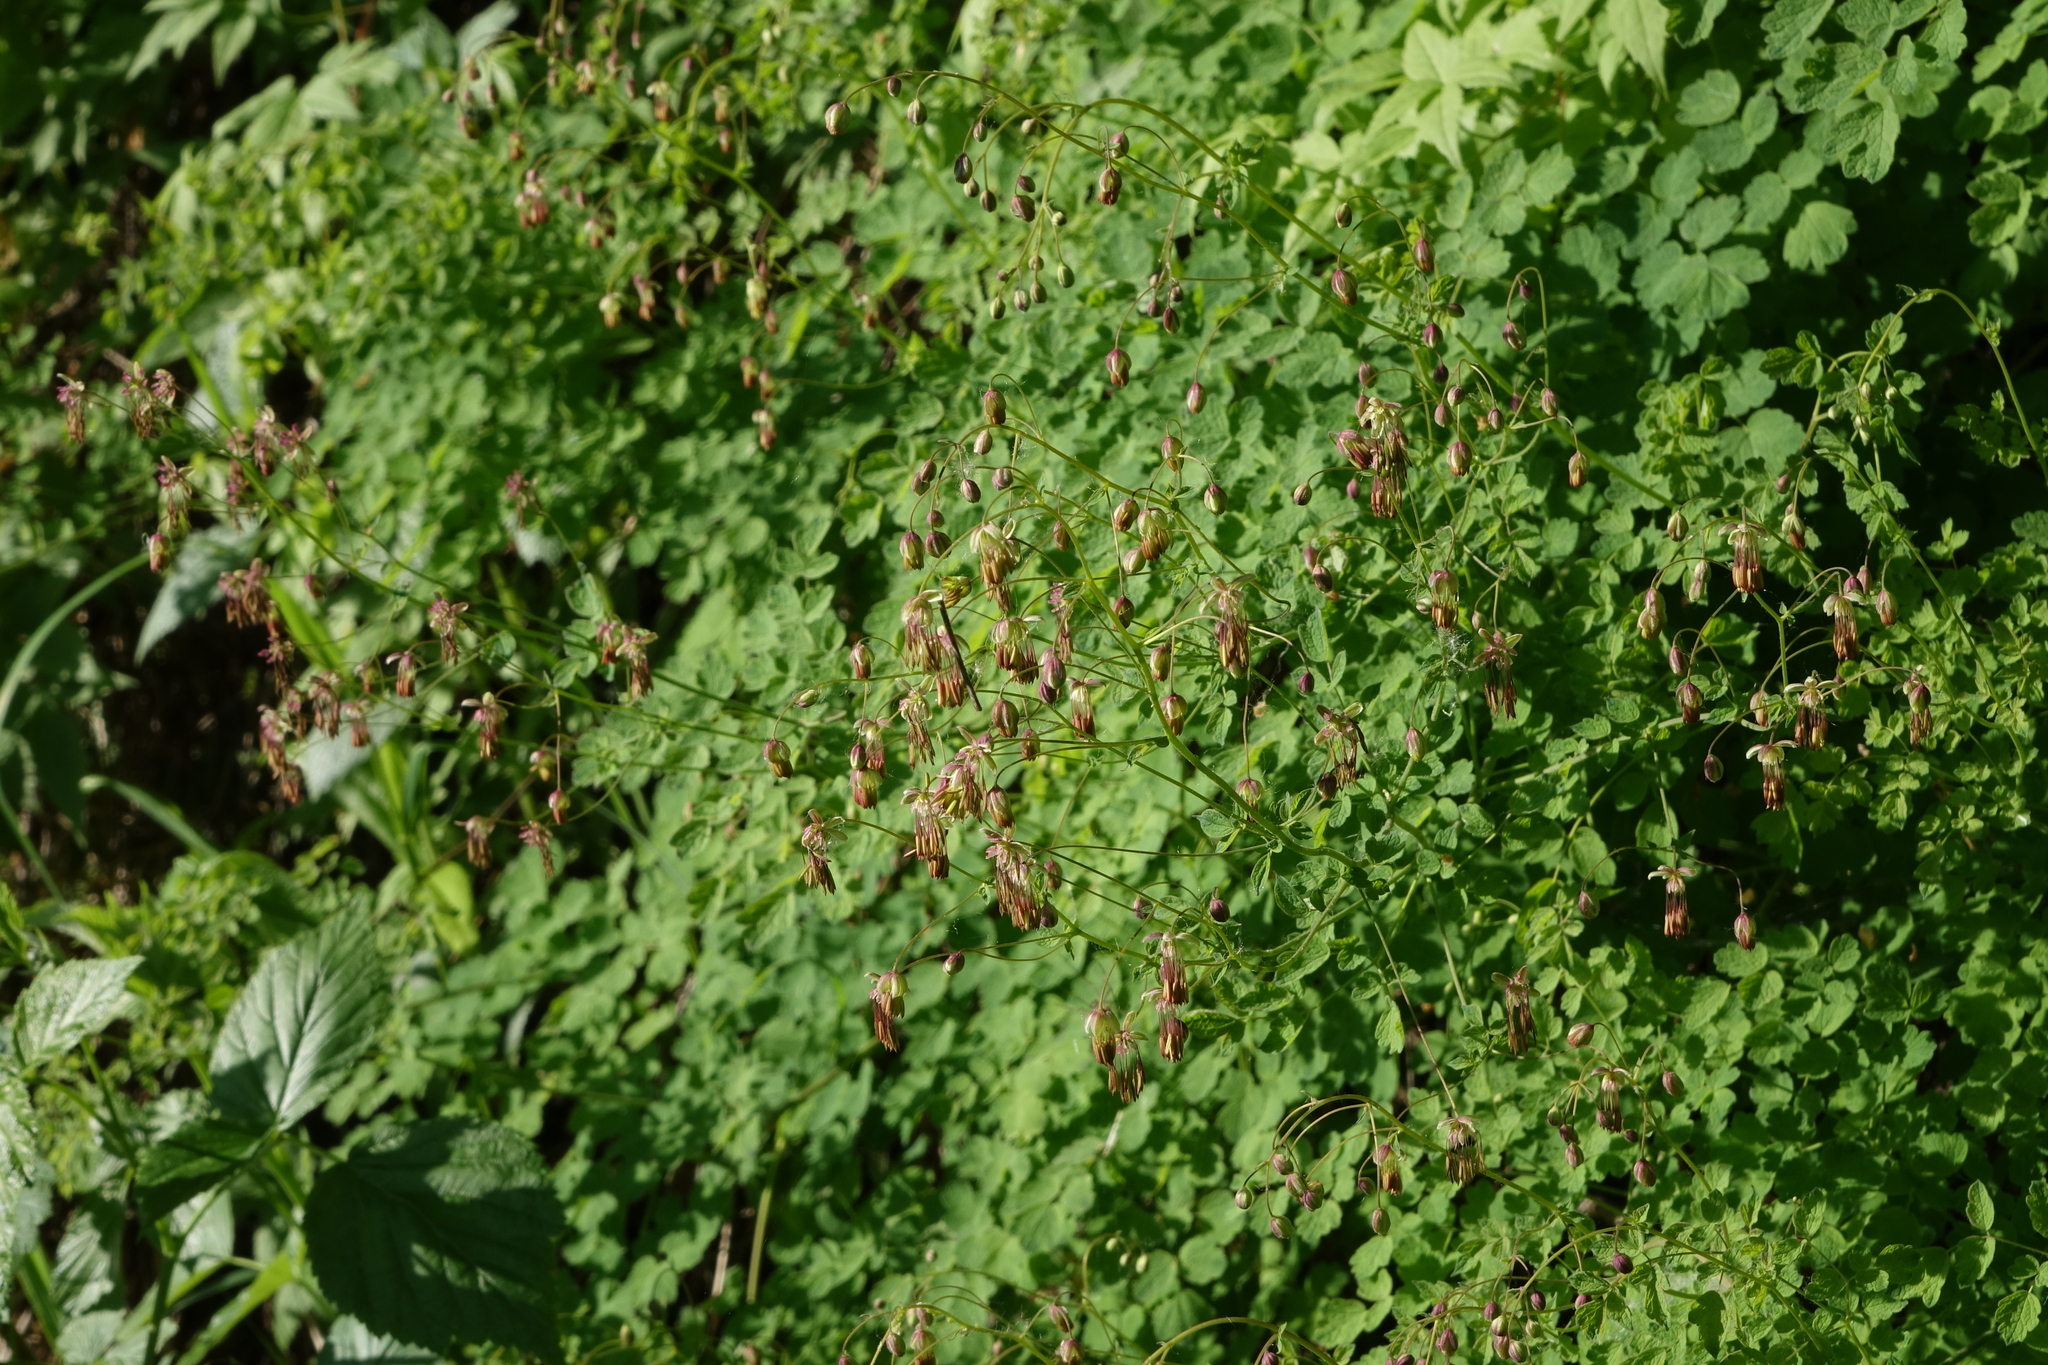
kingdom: Plantae
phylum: Tracheophyta
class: Magnoliopsida
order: Ranunculales
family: Ranunculaceae
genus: Thalictrum
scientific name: Thalictrum foetidum
